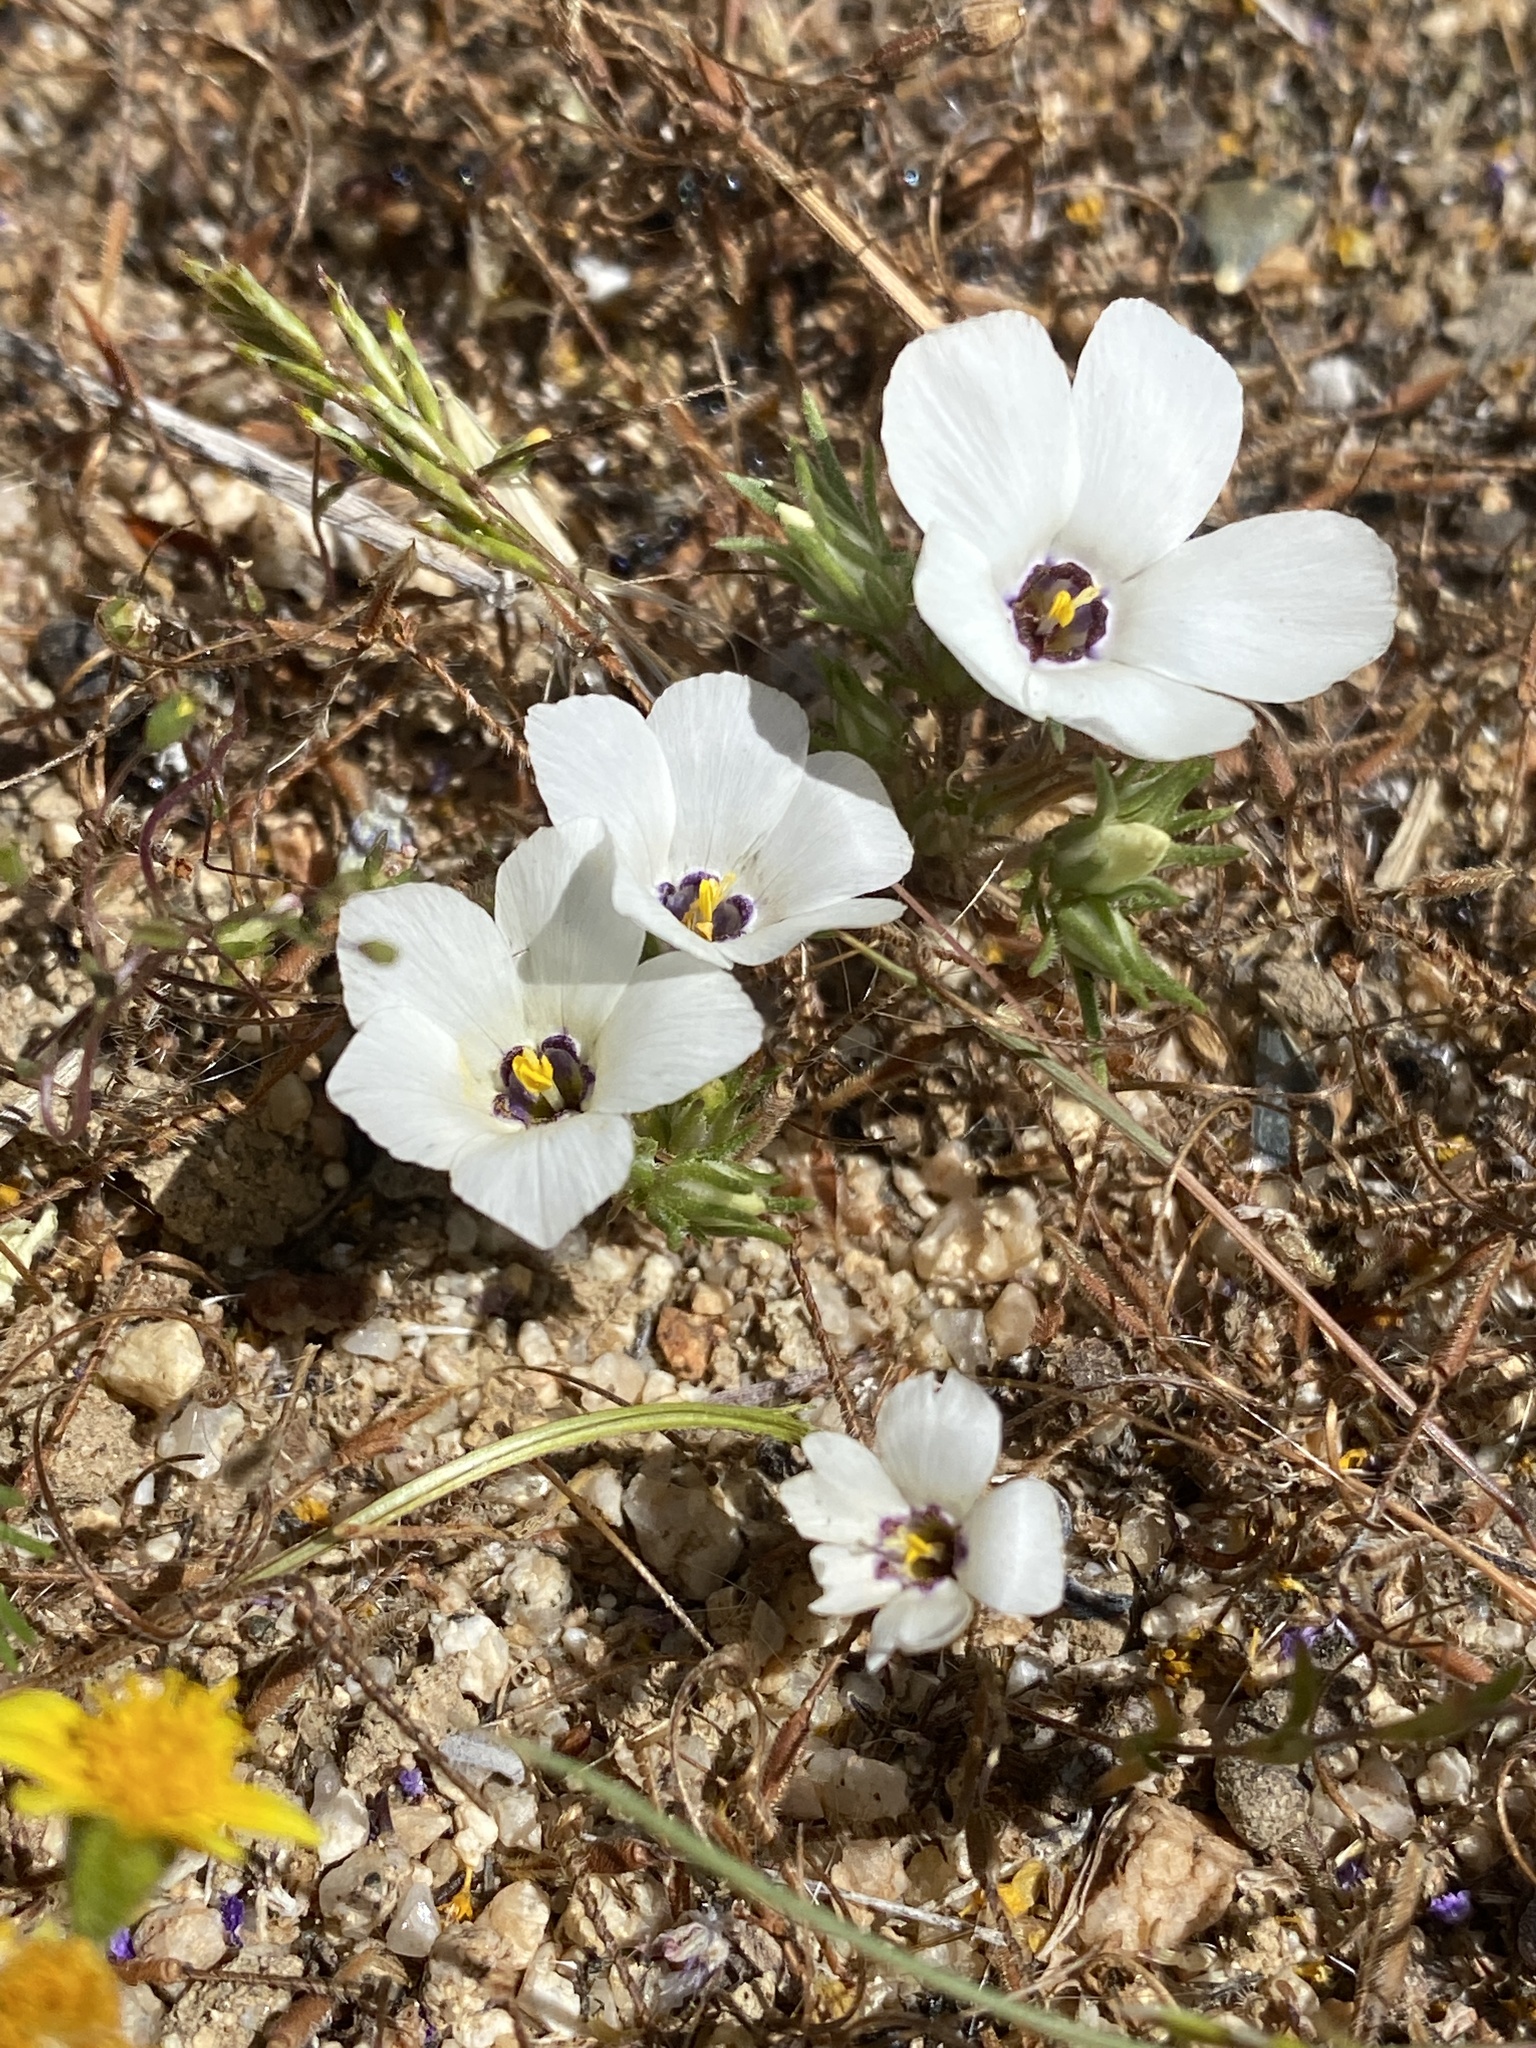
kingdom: Plantae
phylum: Tracheophyta
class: Magnoliopsida
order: Ericales
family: Polemoniaceae
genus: Linanthus
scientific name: Linanthus parryae
